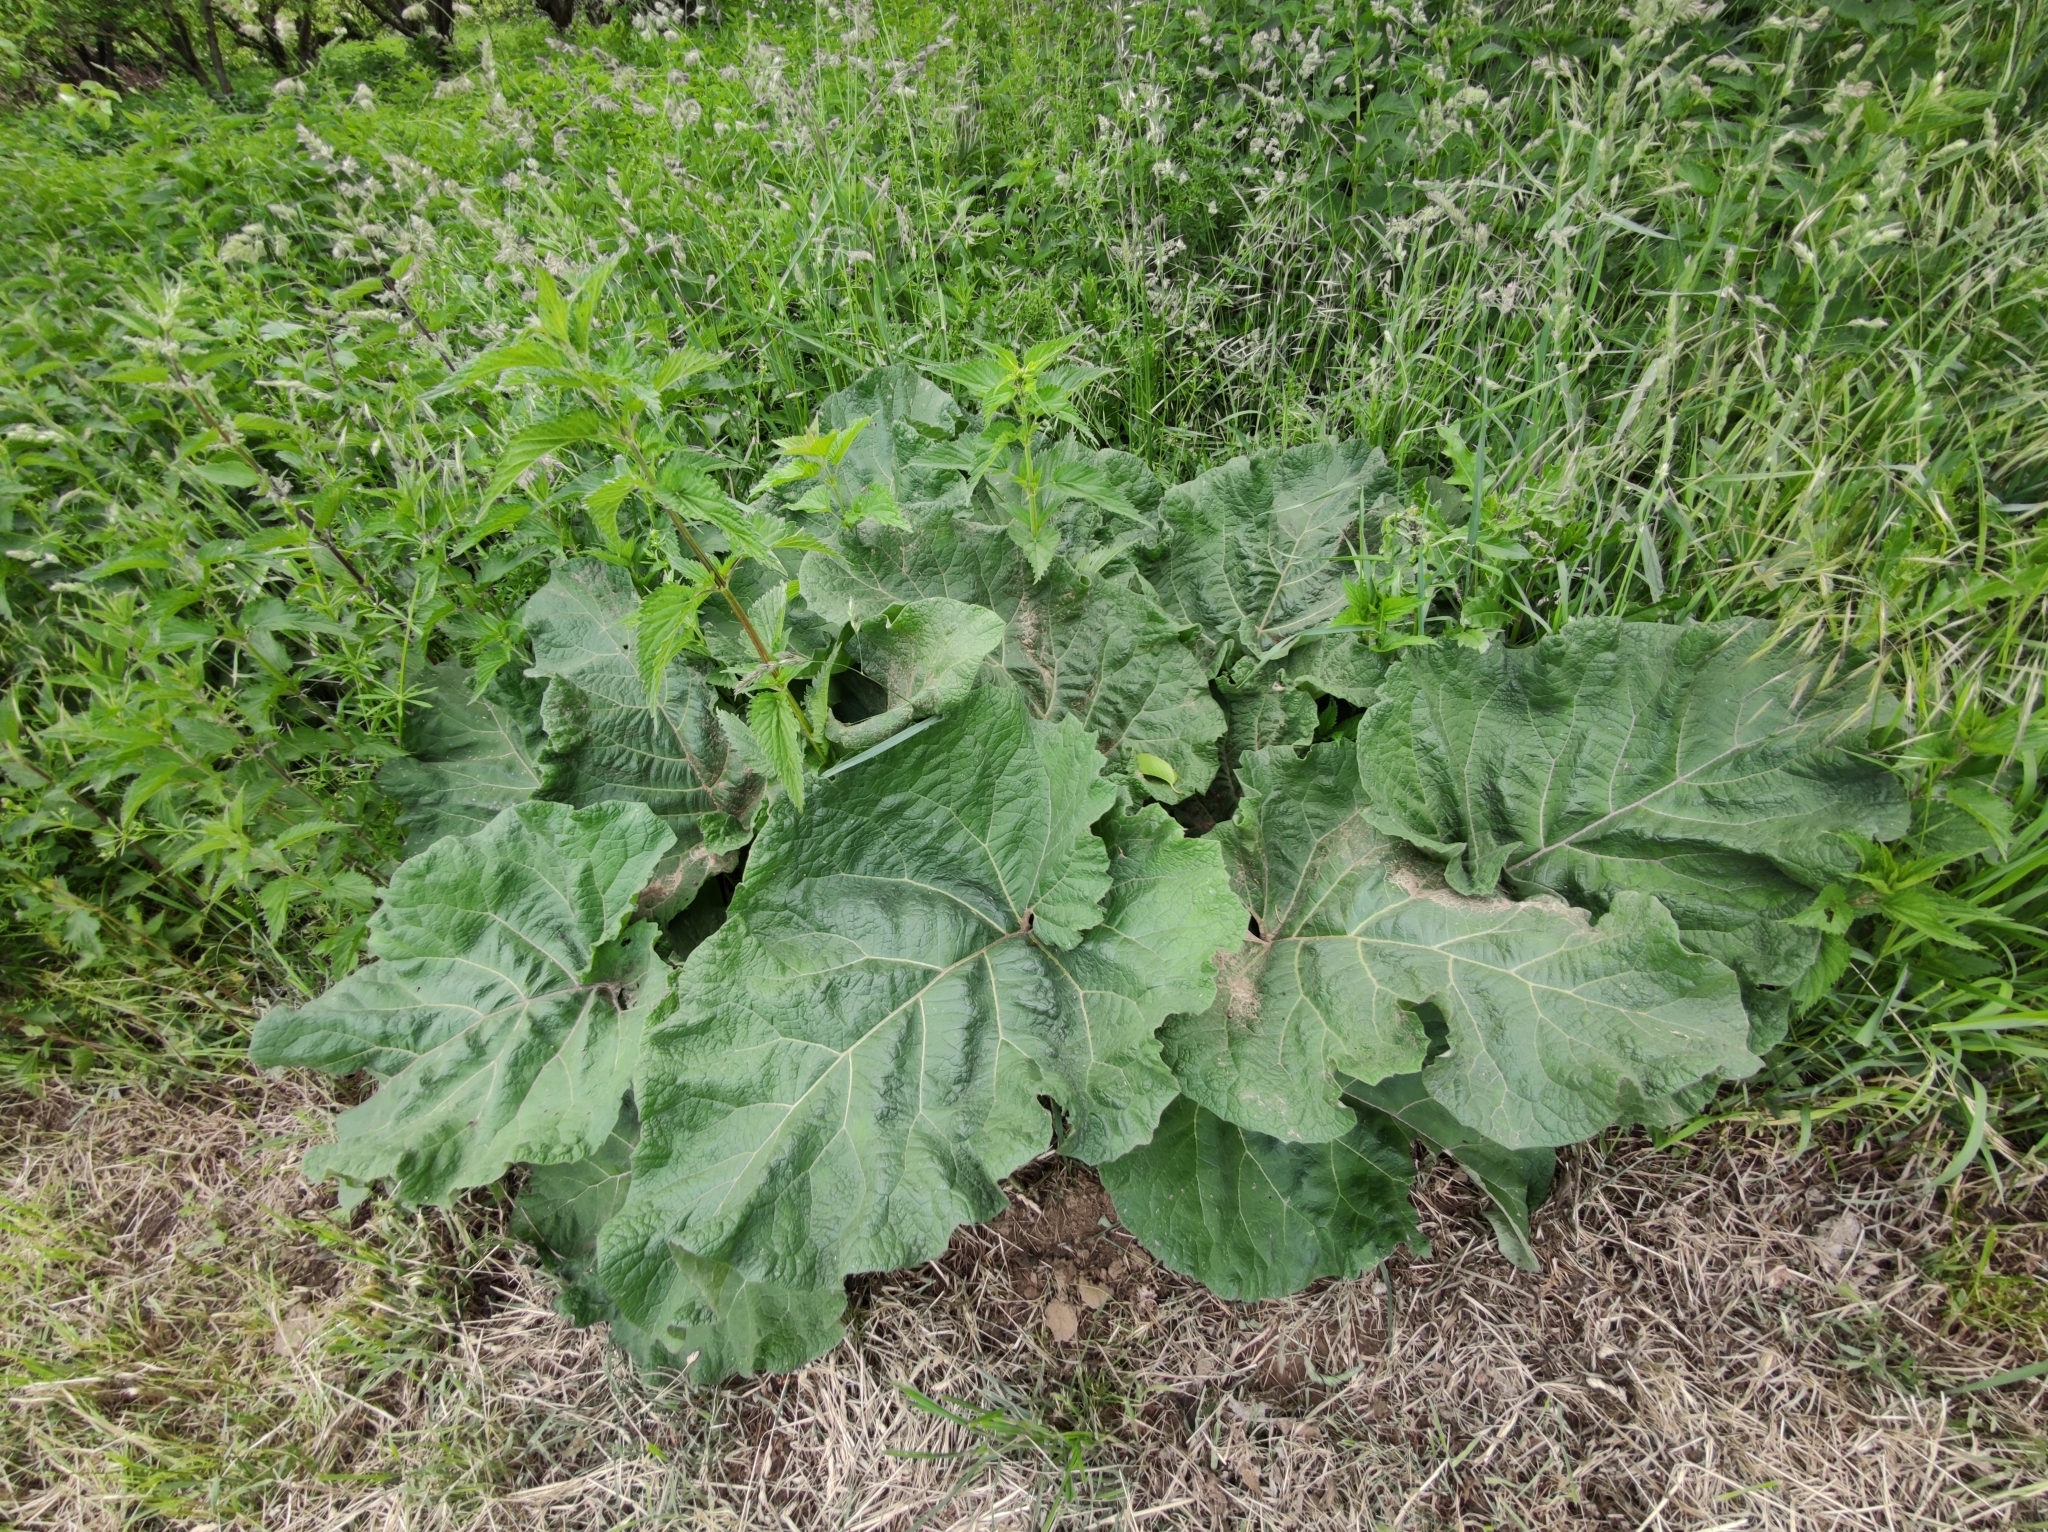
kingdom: Plantae
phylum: Tracheophyta
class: Magnoliopsida
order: Asterales
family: Asteraceae
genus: Arctium
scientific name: Arctium
